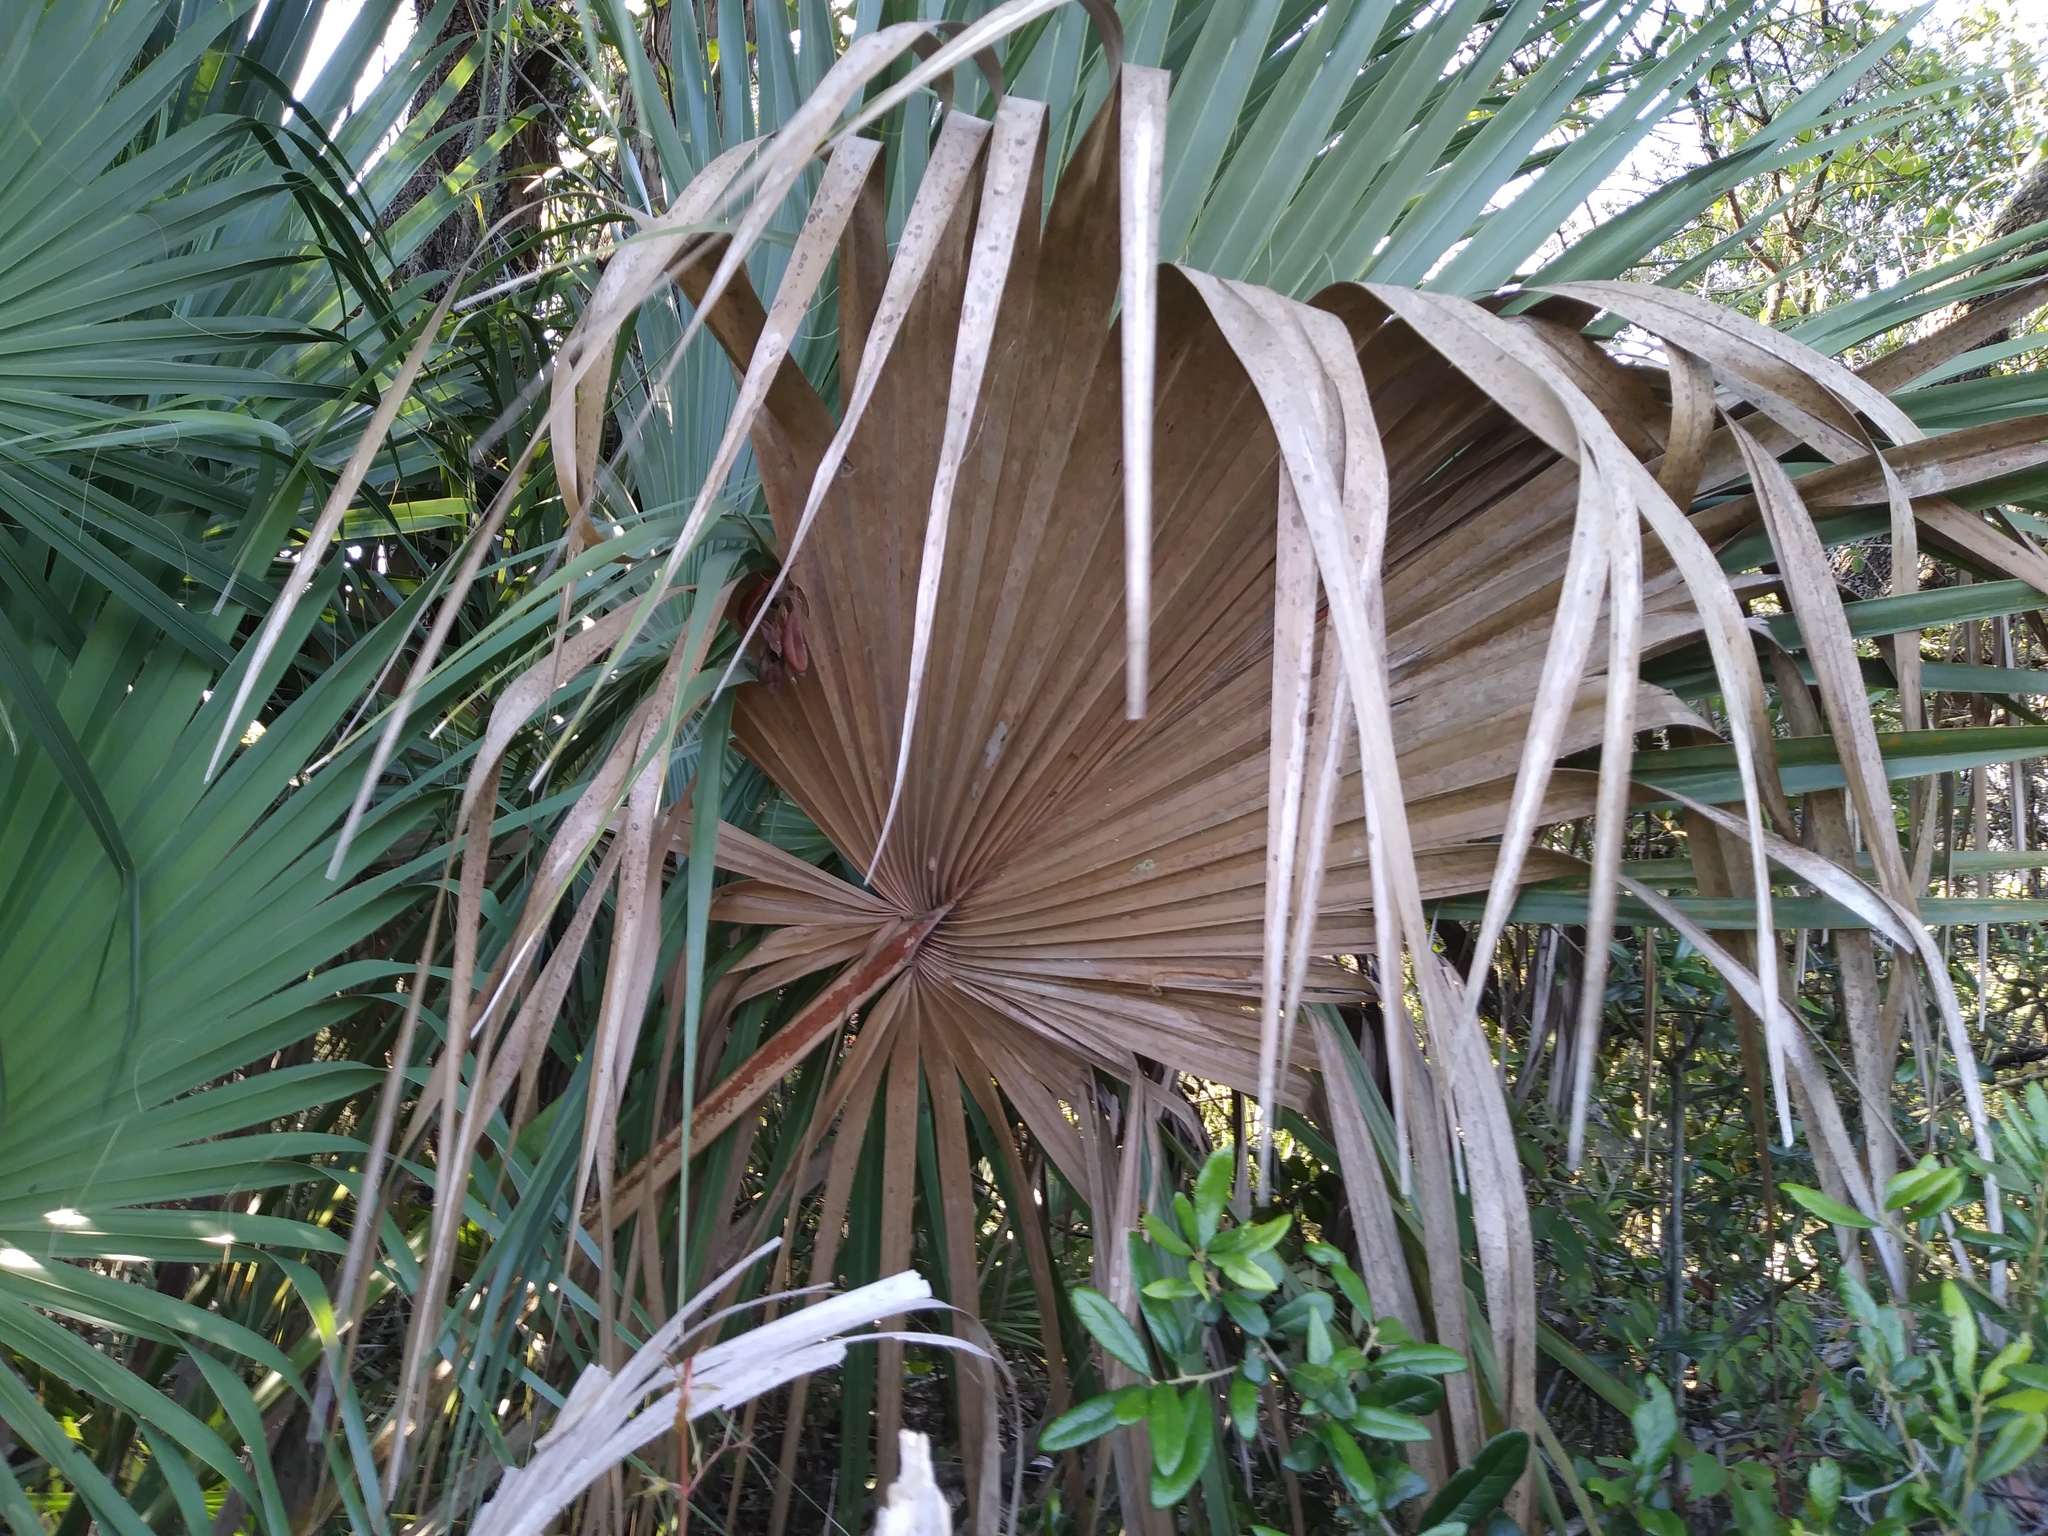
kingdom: Plantae
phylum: Tracheophyta
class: Liliopsida
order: Arecales
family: Arecaceae
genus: Sabal
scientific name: Sabal palmetto
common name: Blue palmetto
